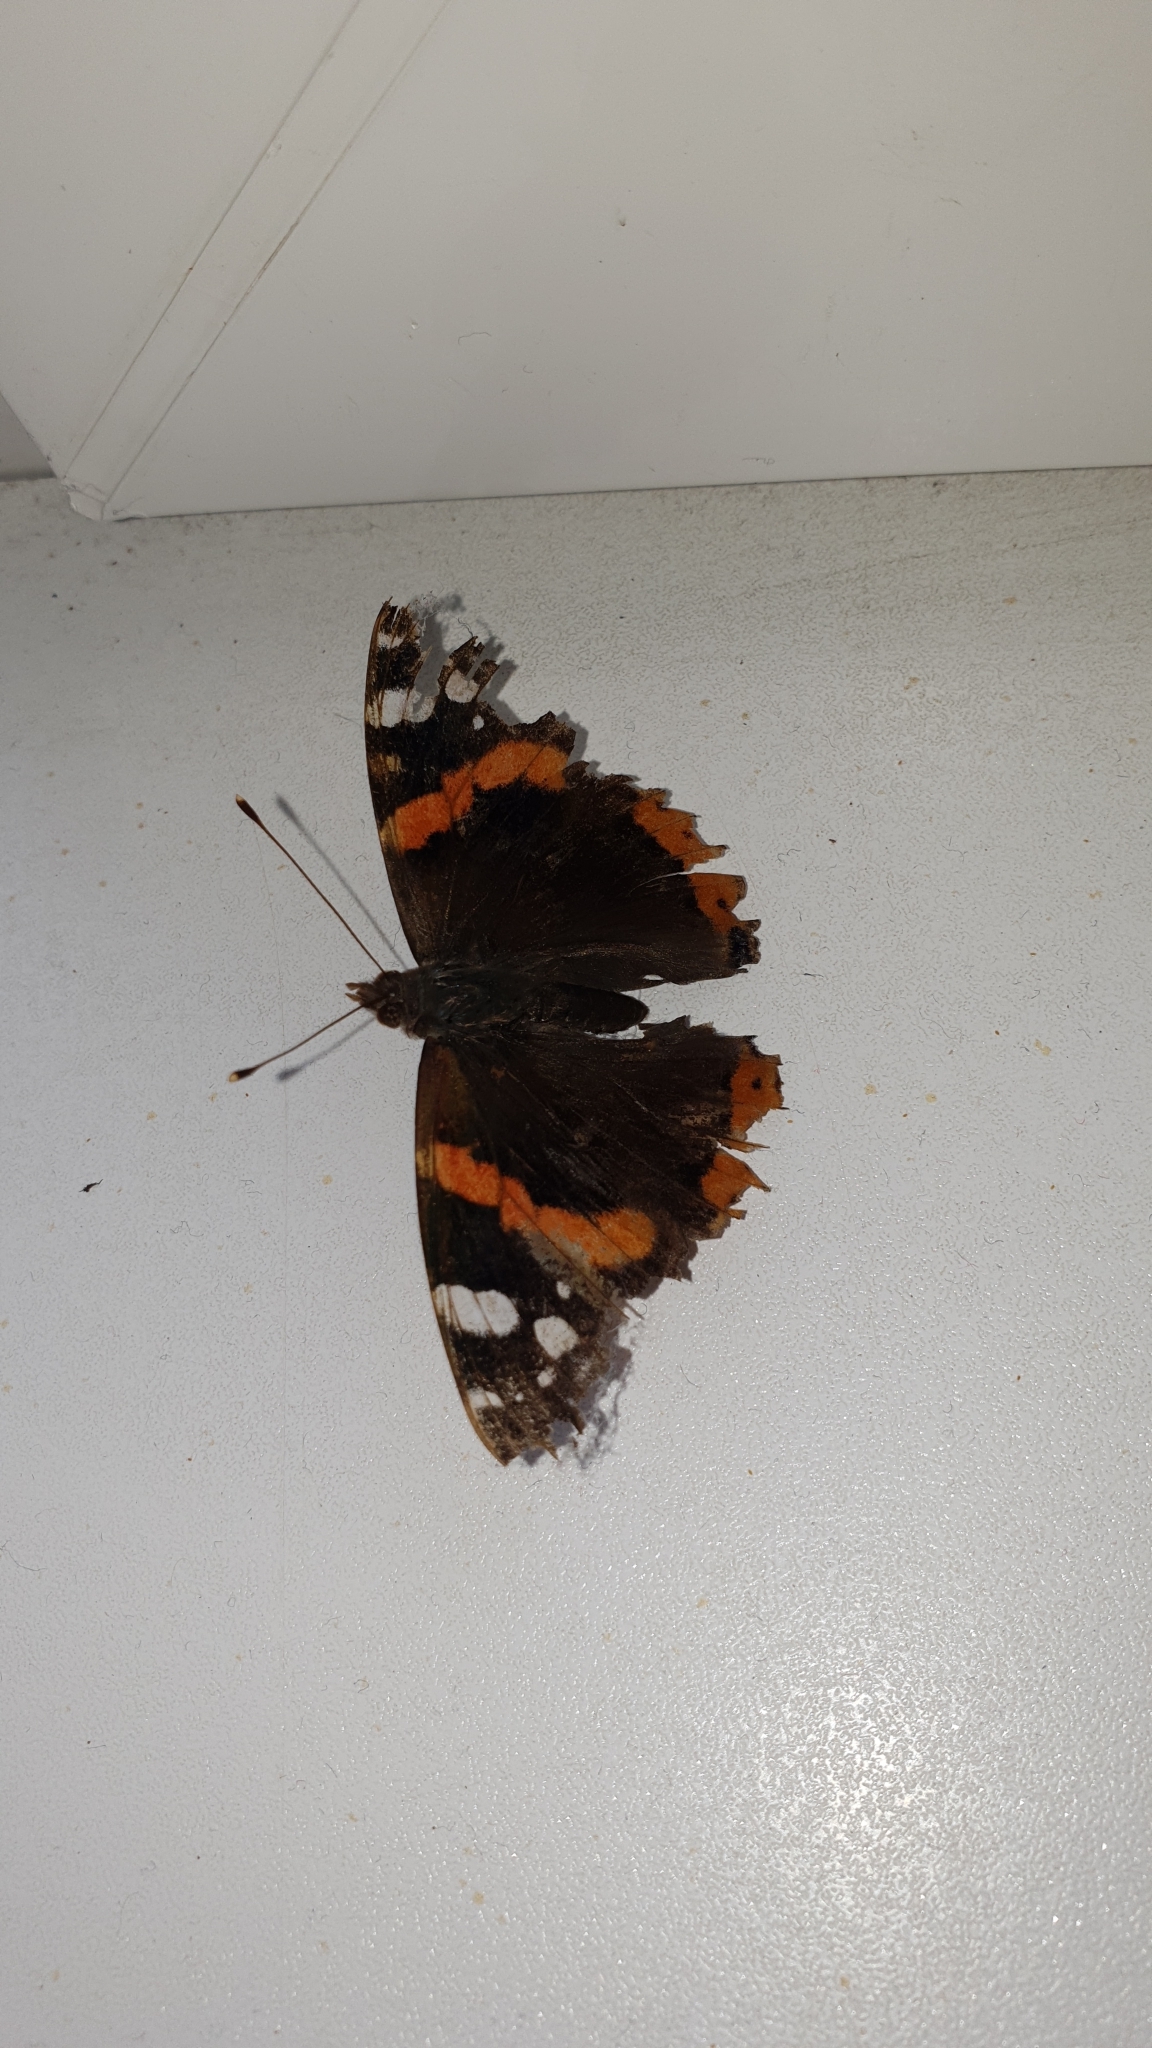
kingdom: Animalia
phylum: Arthropoda
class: Insecta
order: Lepidoptera
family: Nymphalidae
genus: Vanessa
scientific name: Vanessa atalanta
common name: Red admiral
